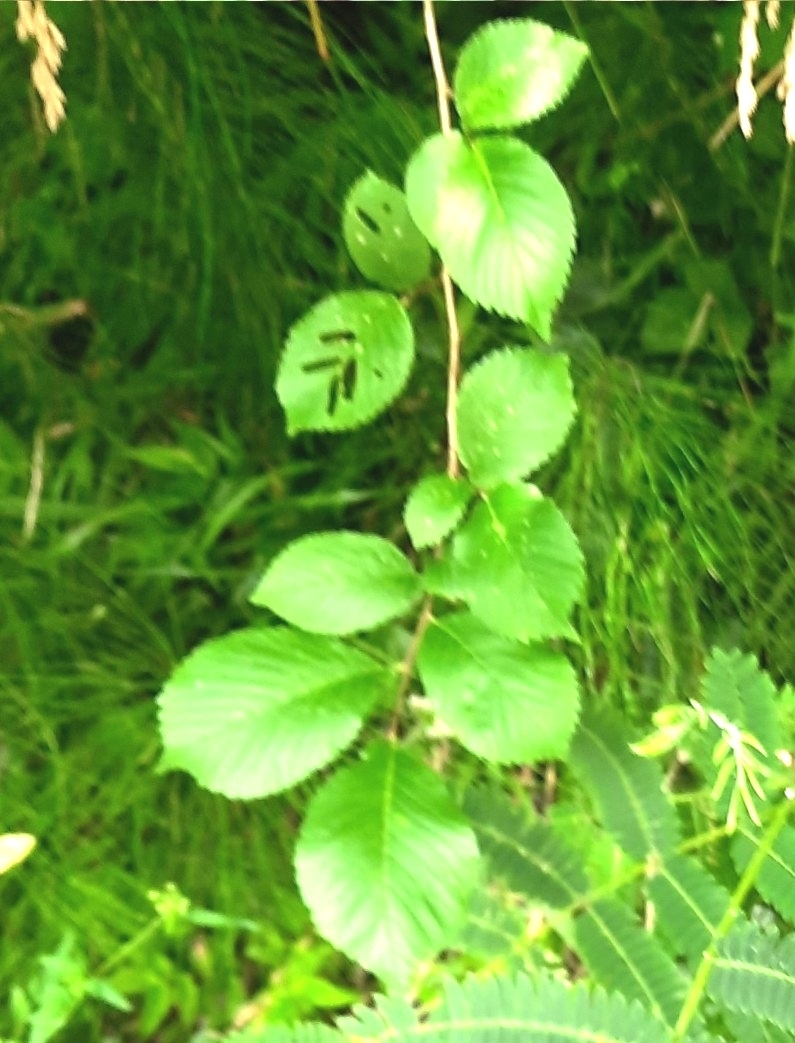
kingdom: Plantae
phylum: Tracheophyta
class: Magnoliopsida
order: Rosales
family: Ulmaceae
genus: Ulmus
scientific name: Ulmus glabra
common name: Wych elm
